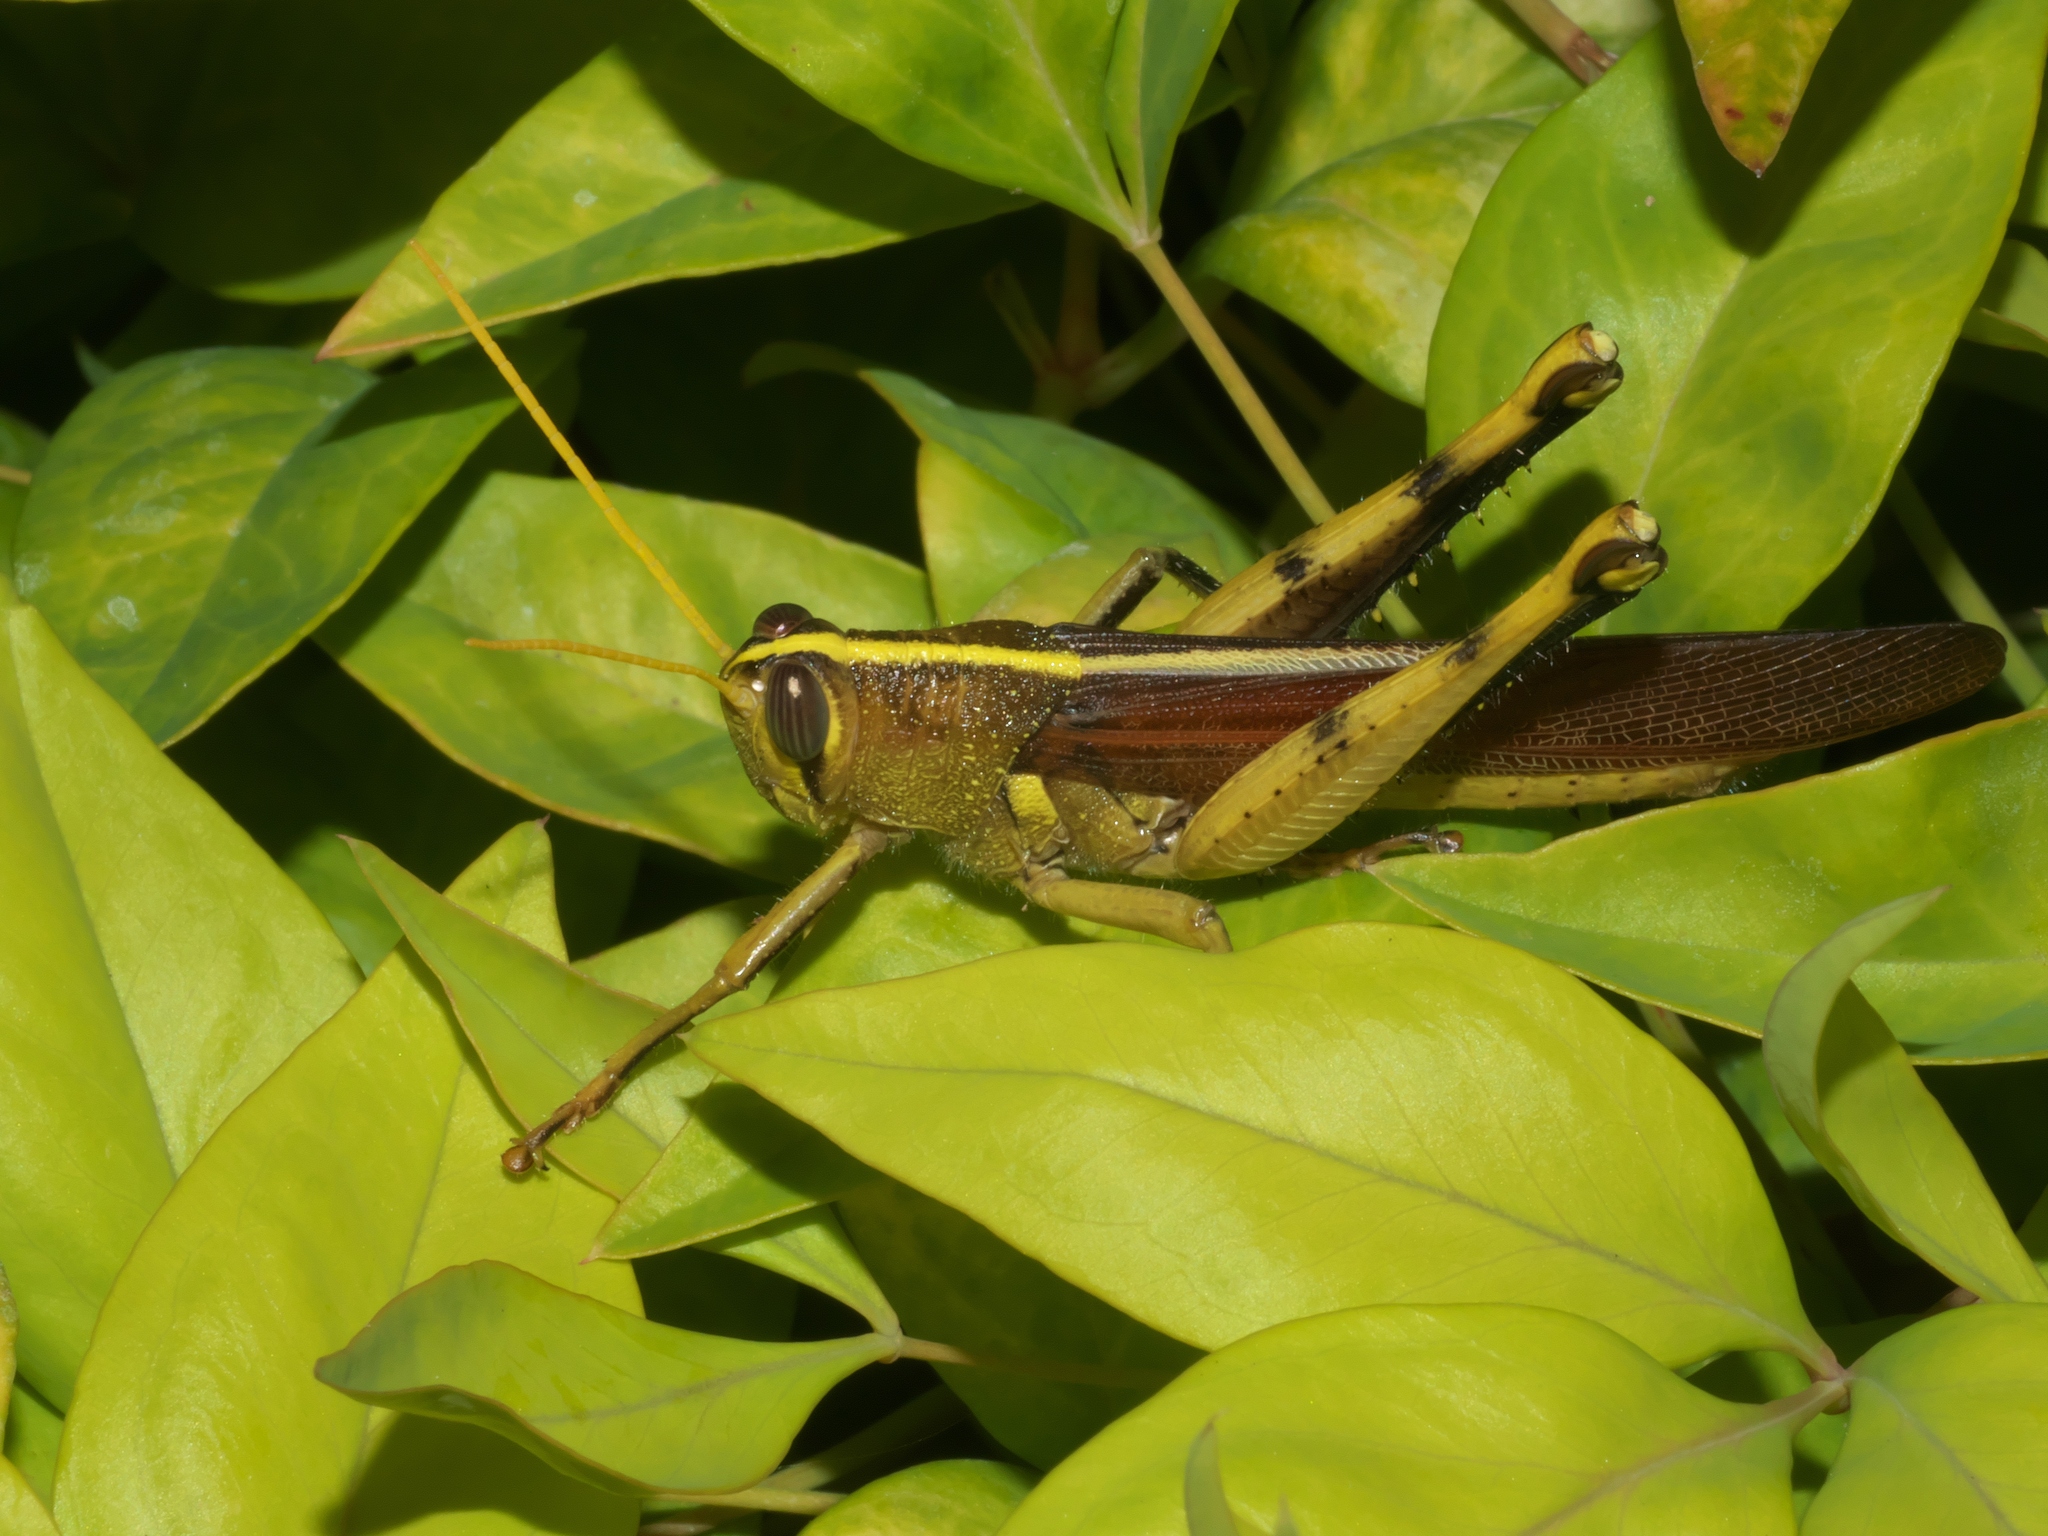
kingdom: Animalia
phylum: Arthropoda
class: Insecta
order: Orthoptera
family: Acrididae
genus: Schistocerca
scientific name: Schistocerca obscura
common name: Obscure bird grasshopper
